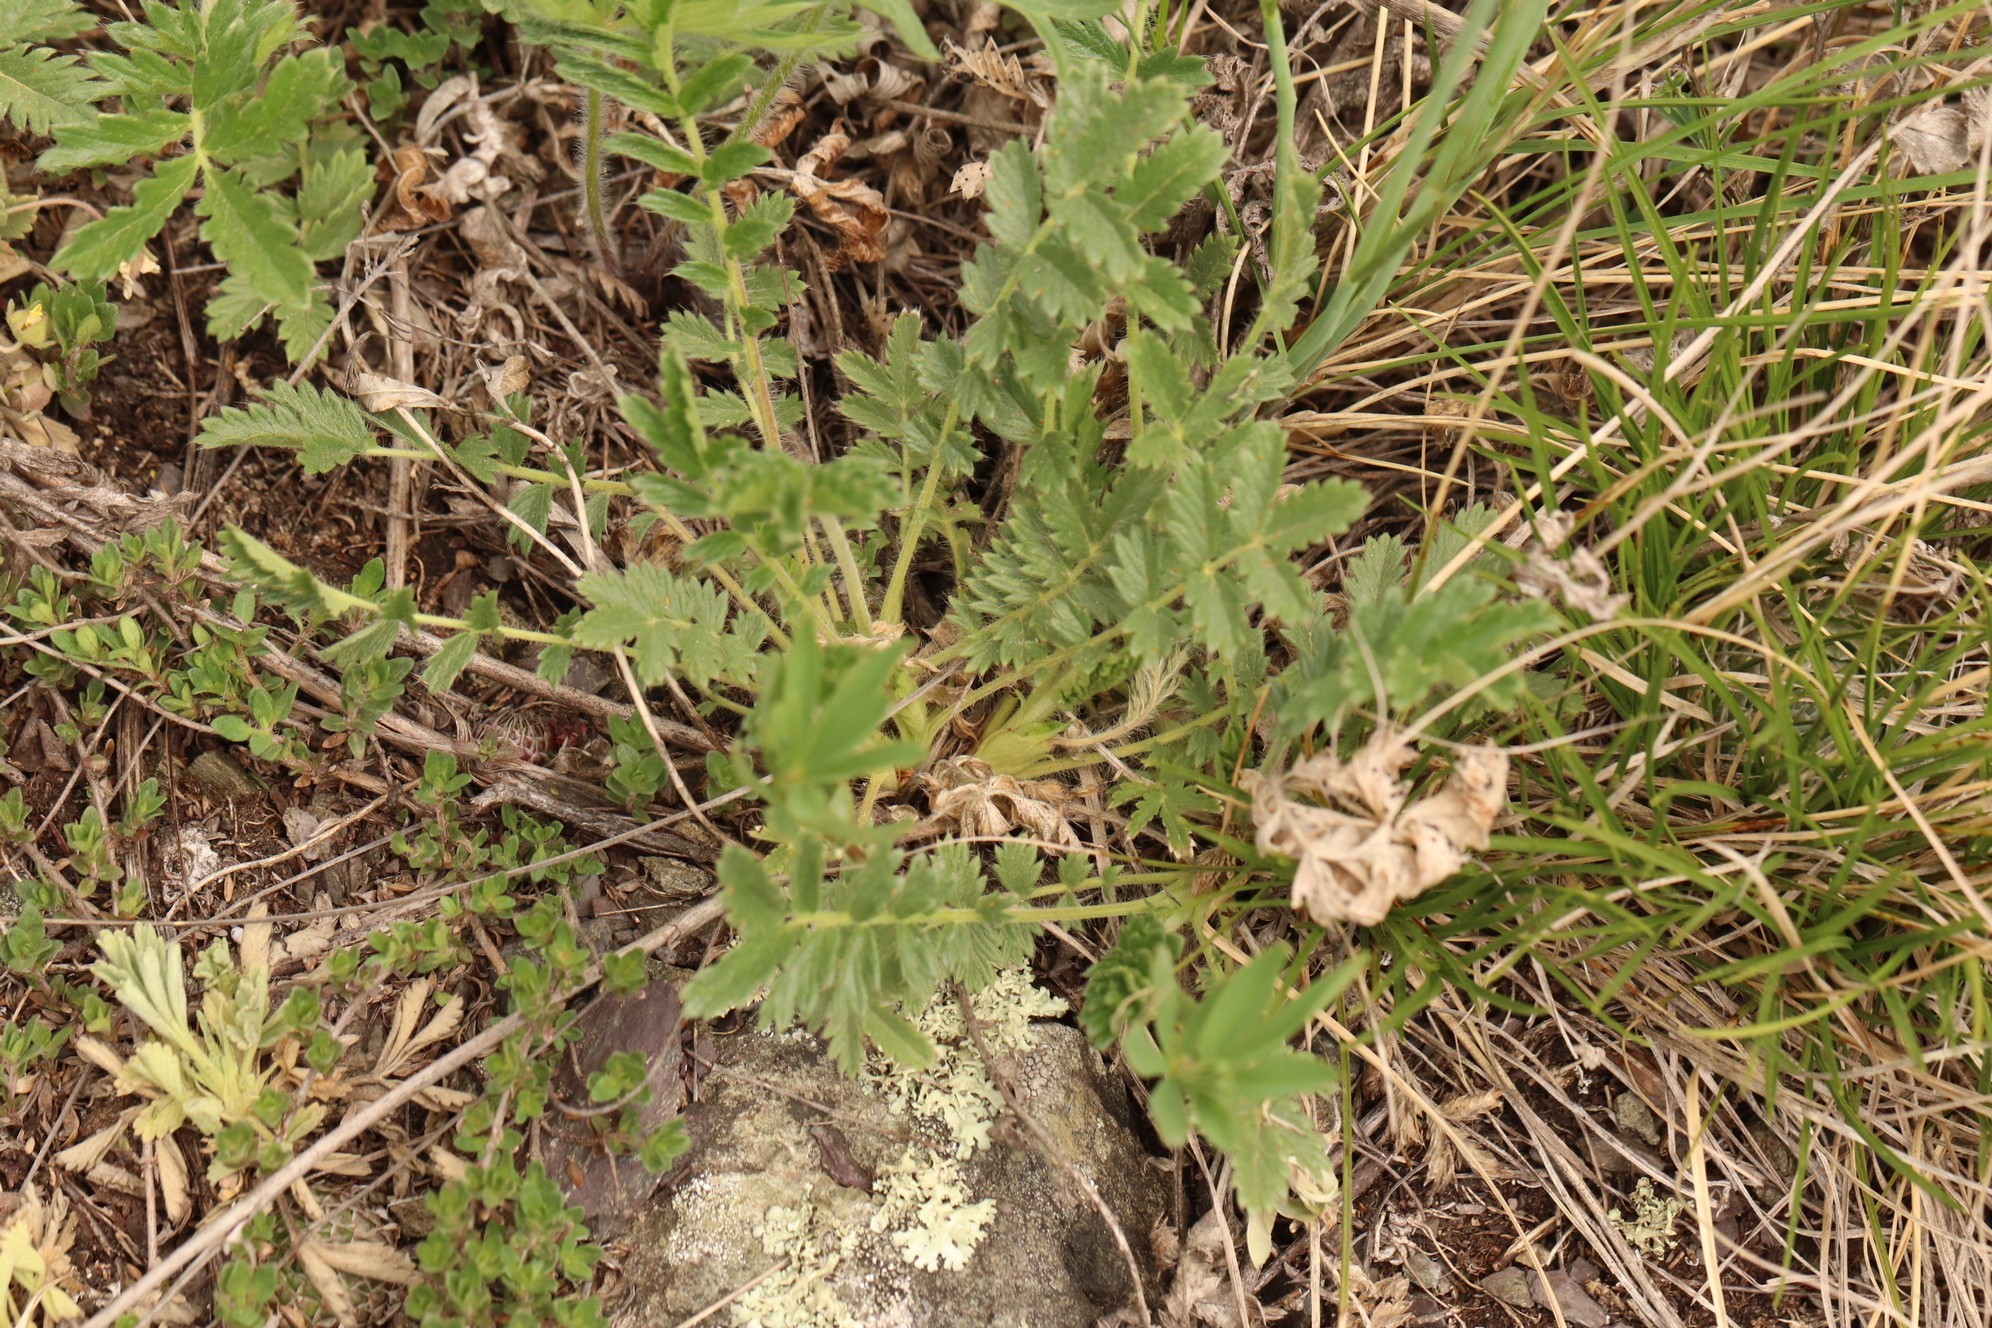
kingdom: Plantae
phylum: Tracheophyta
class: Magnoliopsida
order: Rosales
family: Rosaceae
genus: Potentilla
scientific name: Potentilla tanacetifolia
